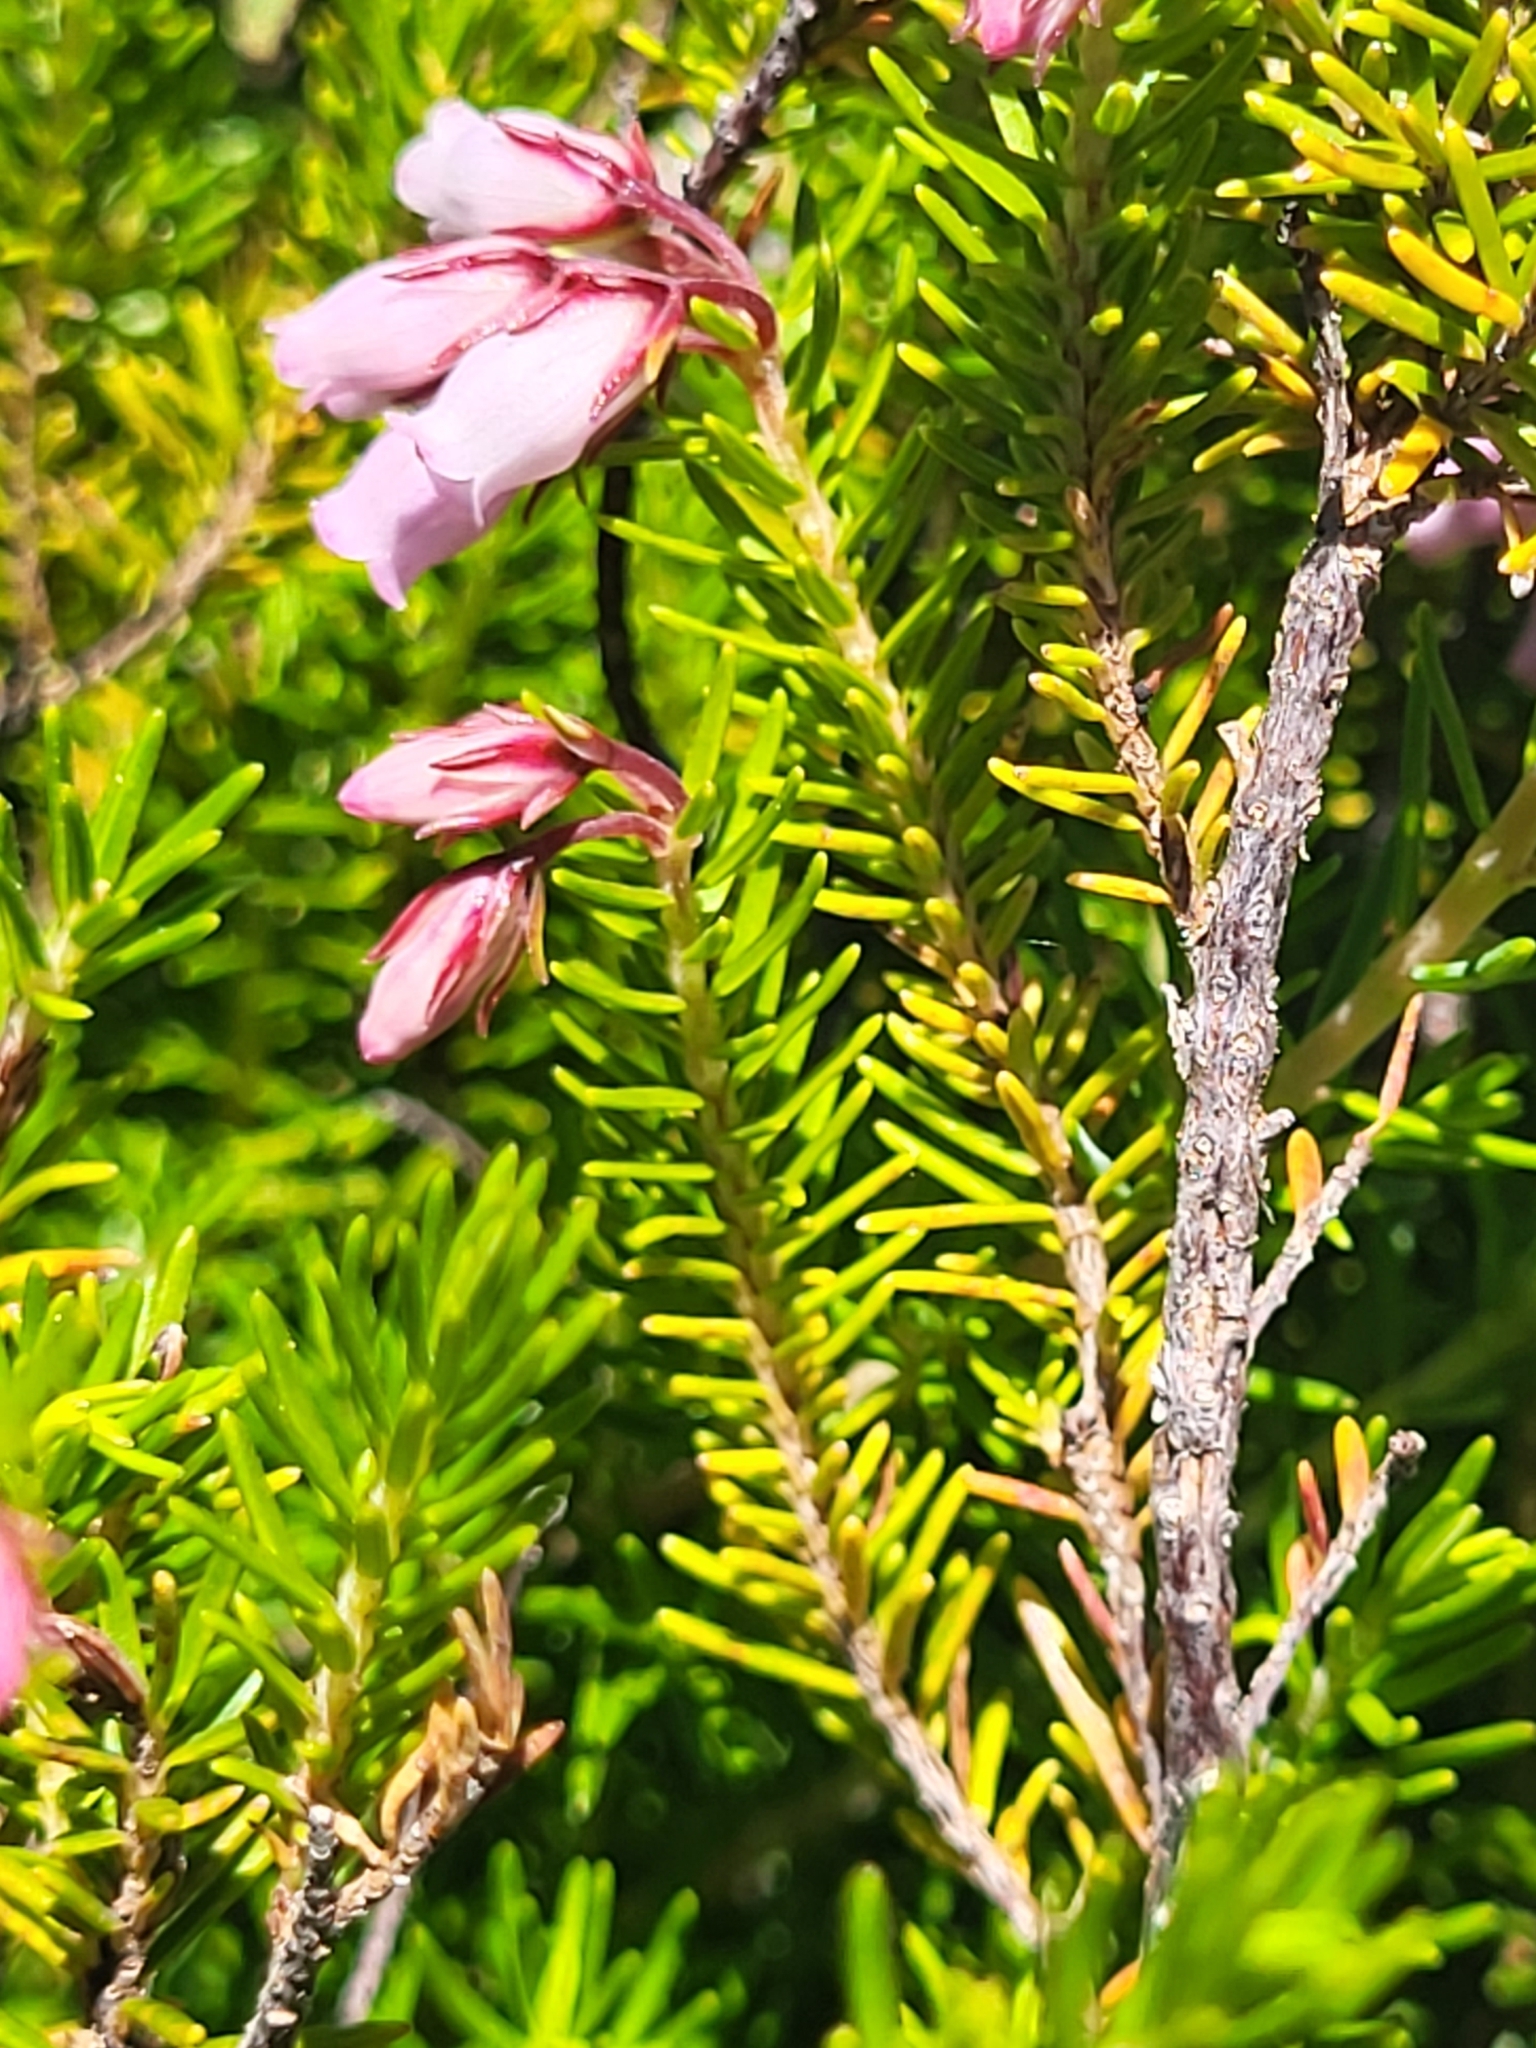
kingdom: Plantae
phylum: Tracheophyta
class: Magnoliopsida
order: Ericales
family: Ericaceae
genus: Erica
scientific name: Erica maderensis
